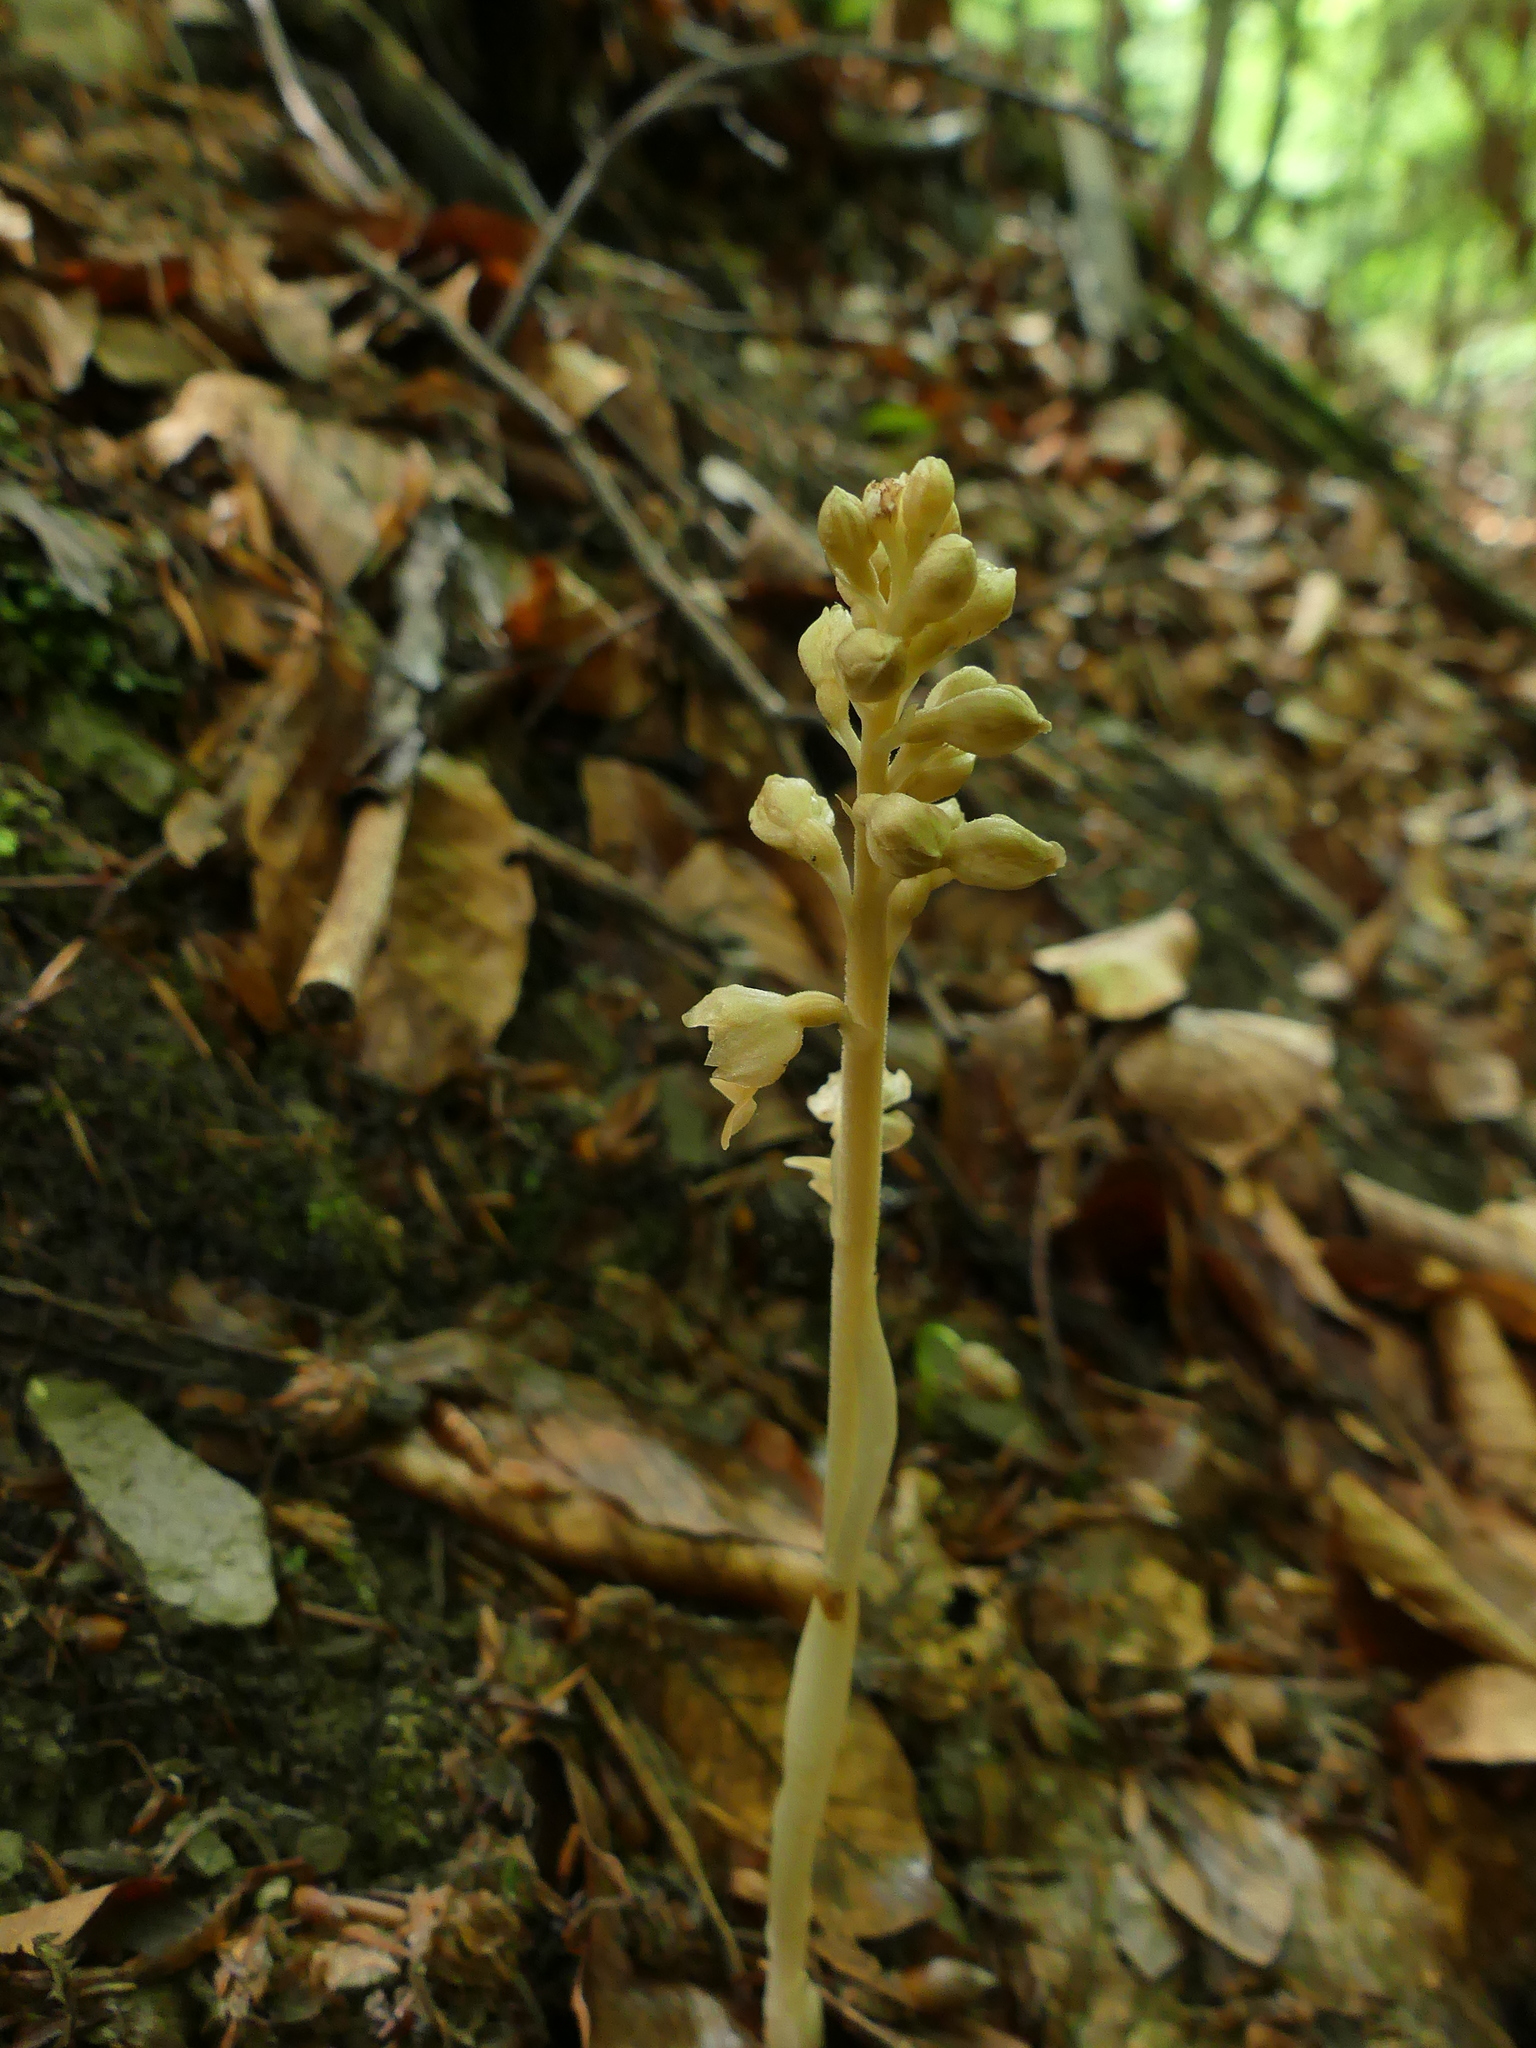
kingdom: Plantae
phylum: Tracheophyta
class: Liliopsida
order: Asparagales
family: Orchidaceae
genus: Neottia
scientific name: Neottia nidus-avis
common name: Bird's-nest orchid
